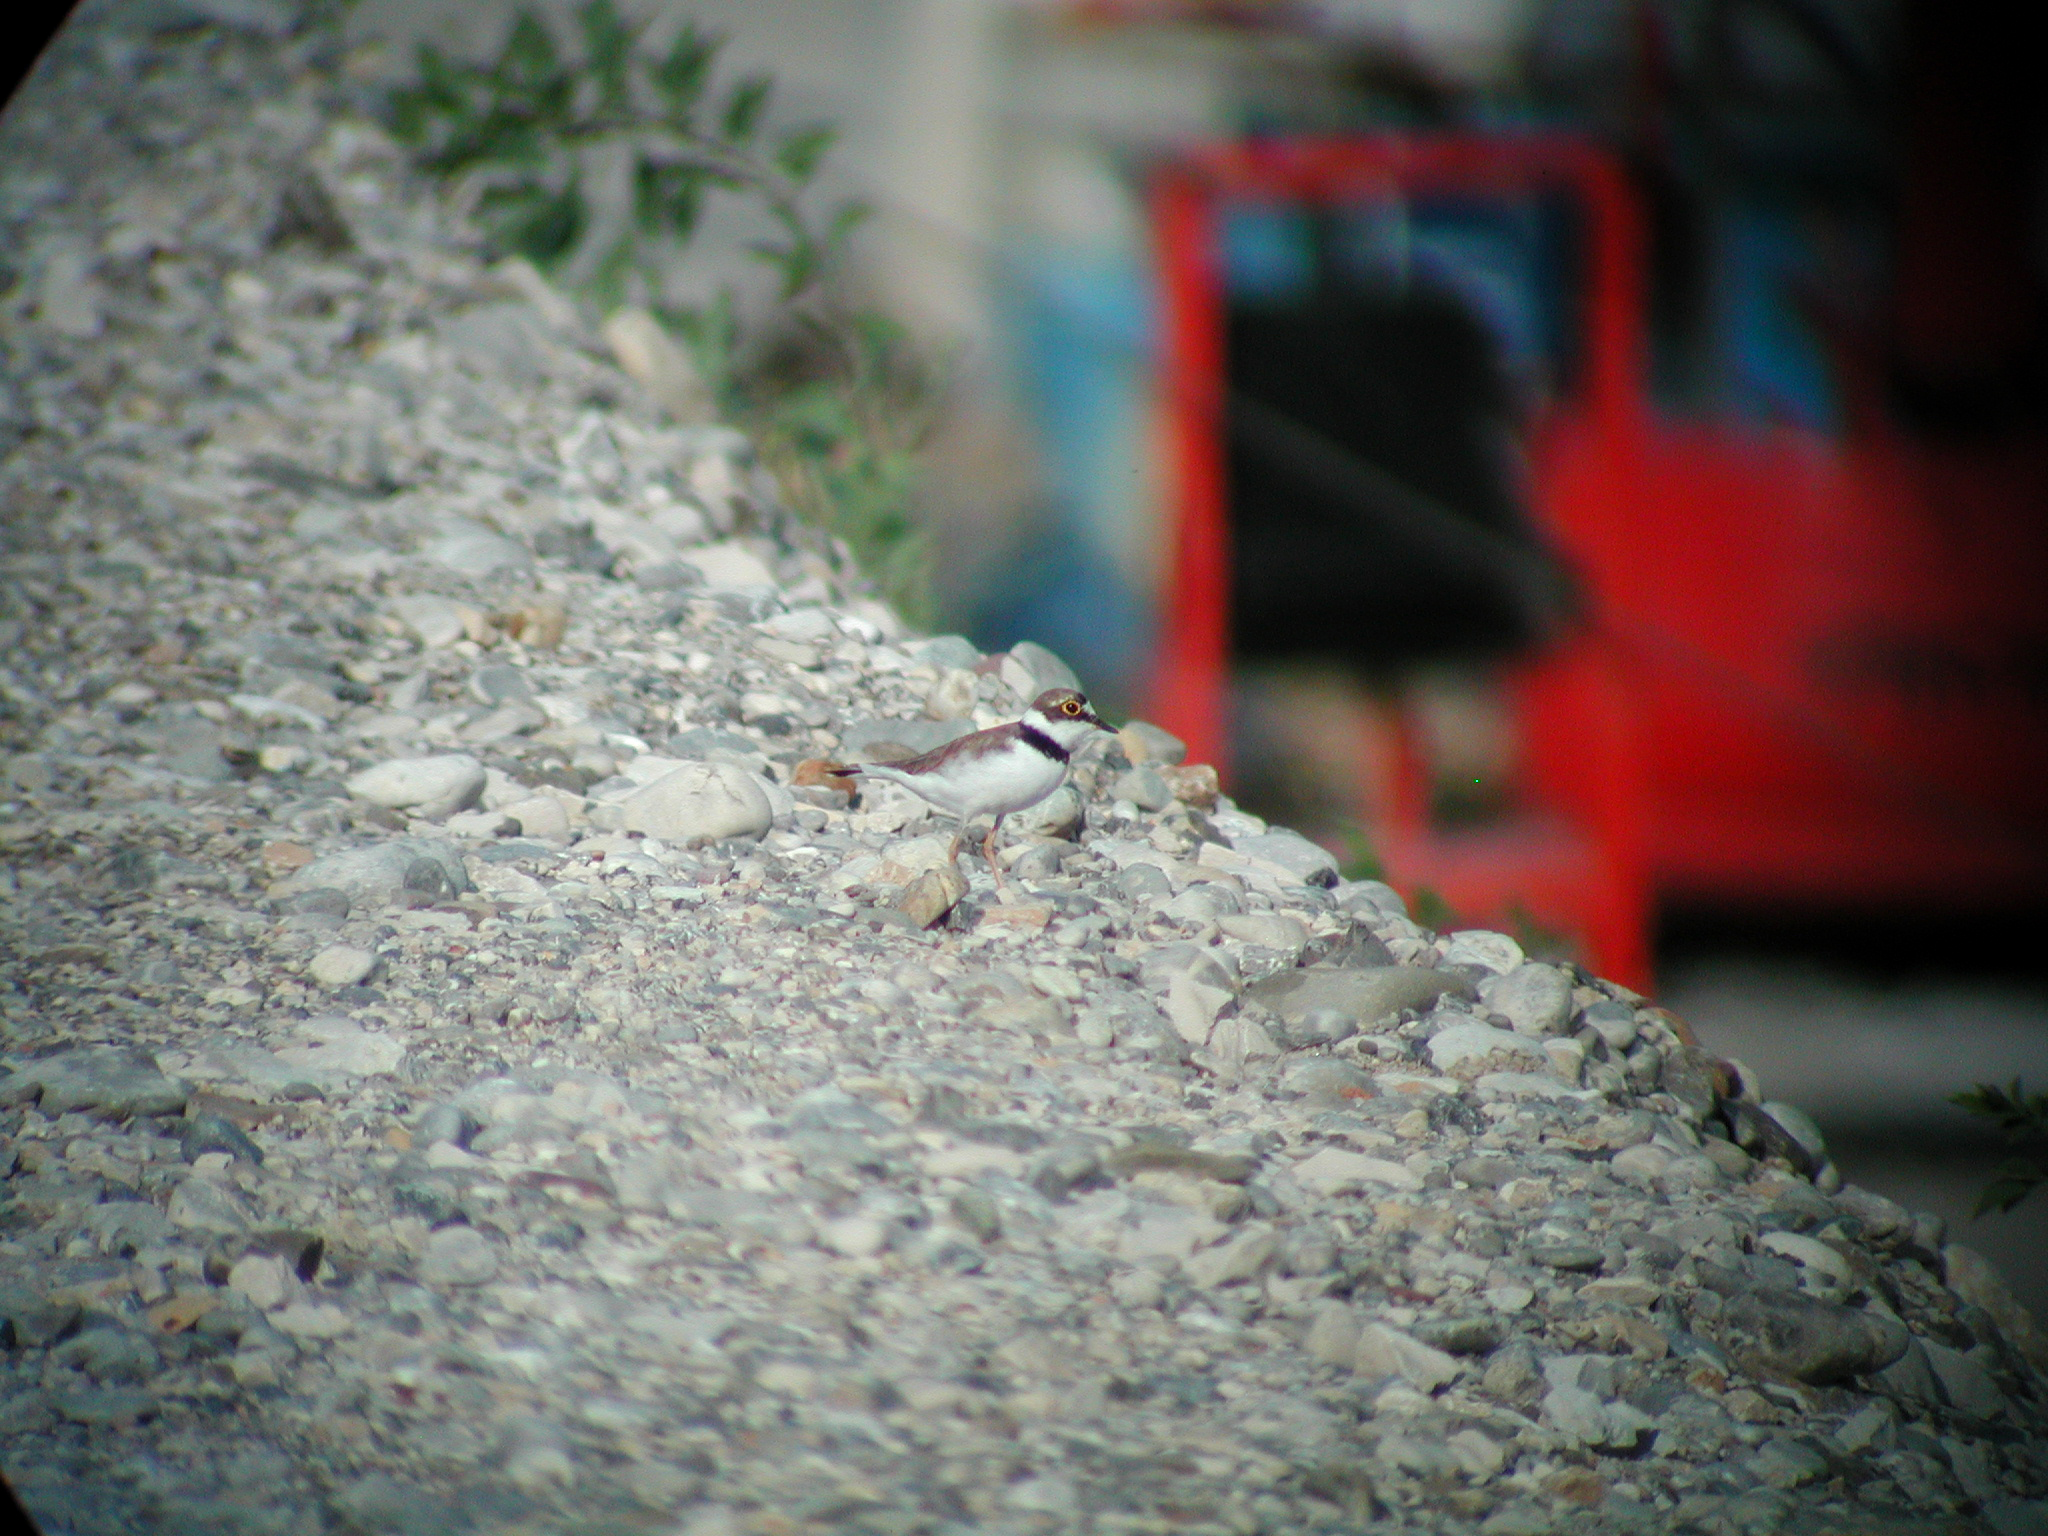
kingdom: Animalia
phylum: Chordata
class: Aves
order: Charadriiformes
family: Charadriidae
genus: Charadrius
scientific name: Charadrius dubius
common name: Little ringed plover
